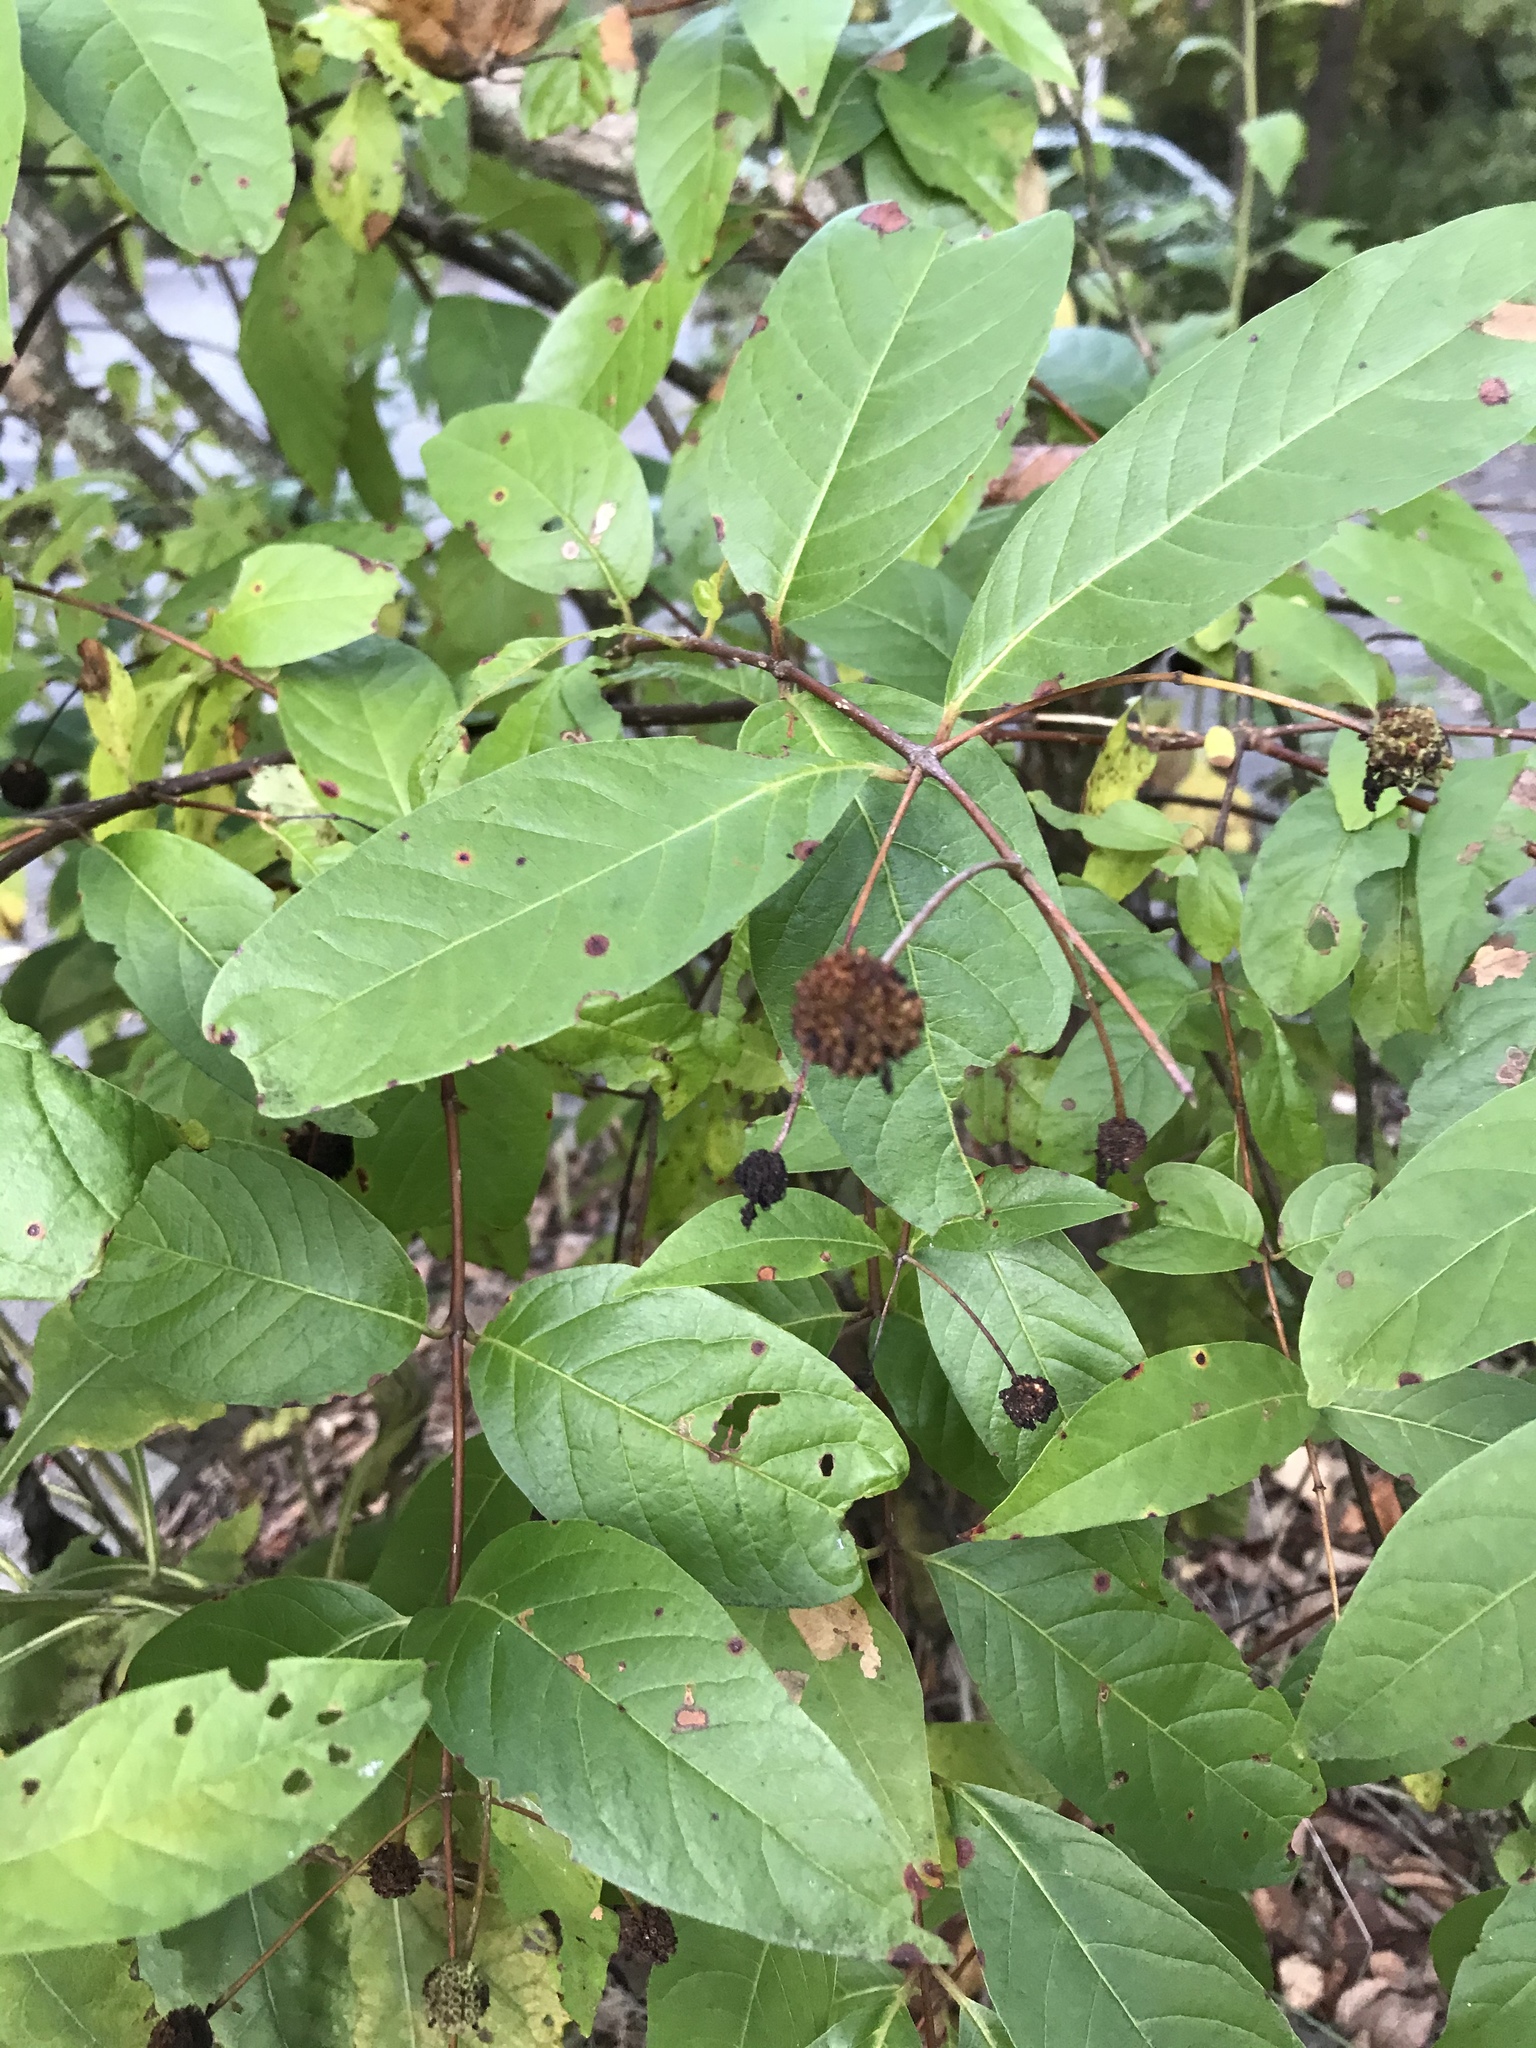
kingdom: Plantae
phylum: Tracheophyta
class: Magnoliopsida
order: Gentianales
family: Rubiaceae
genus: Cephalanthus
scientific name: Cephalanthus occidentalis
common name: Button-willow
